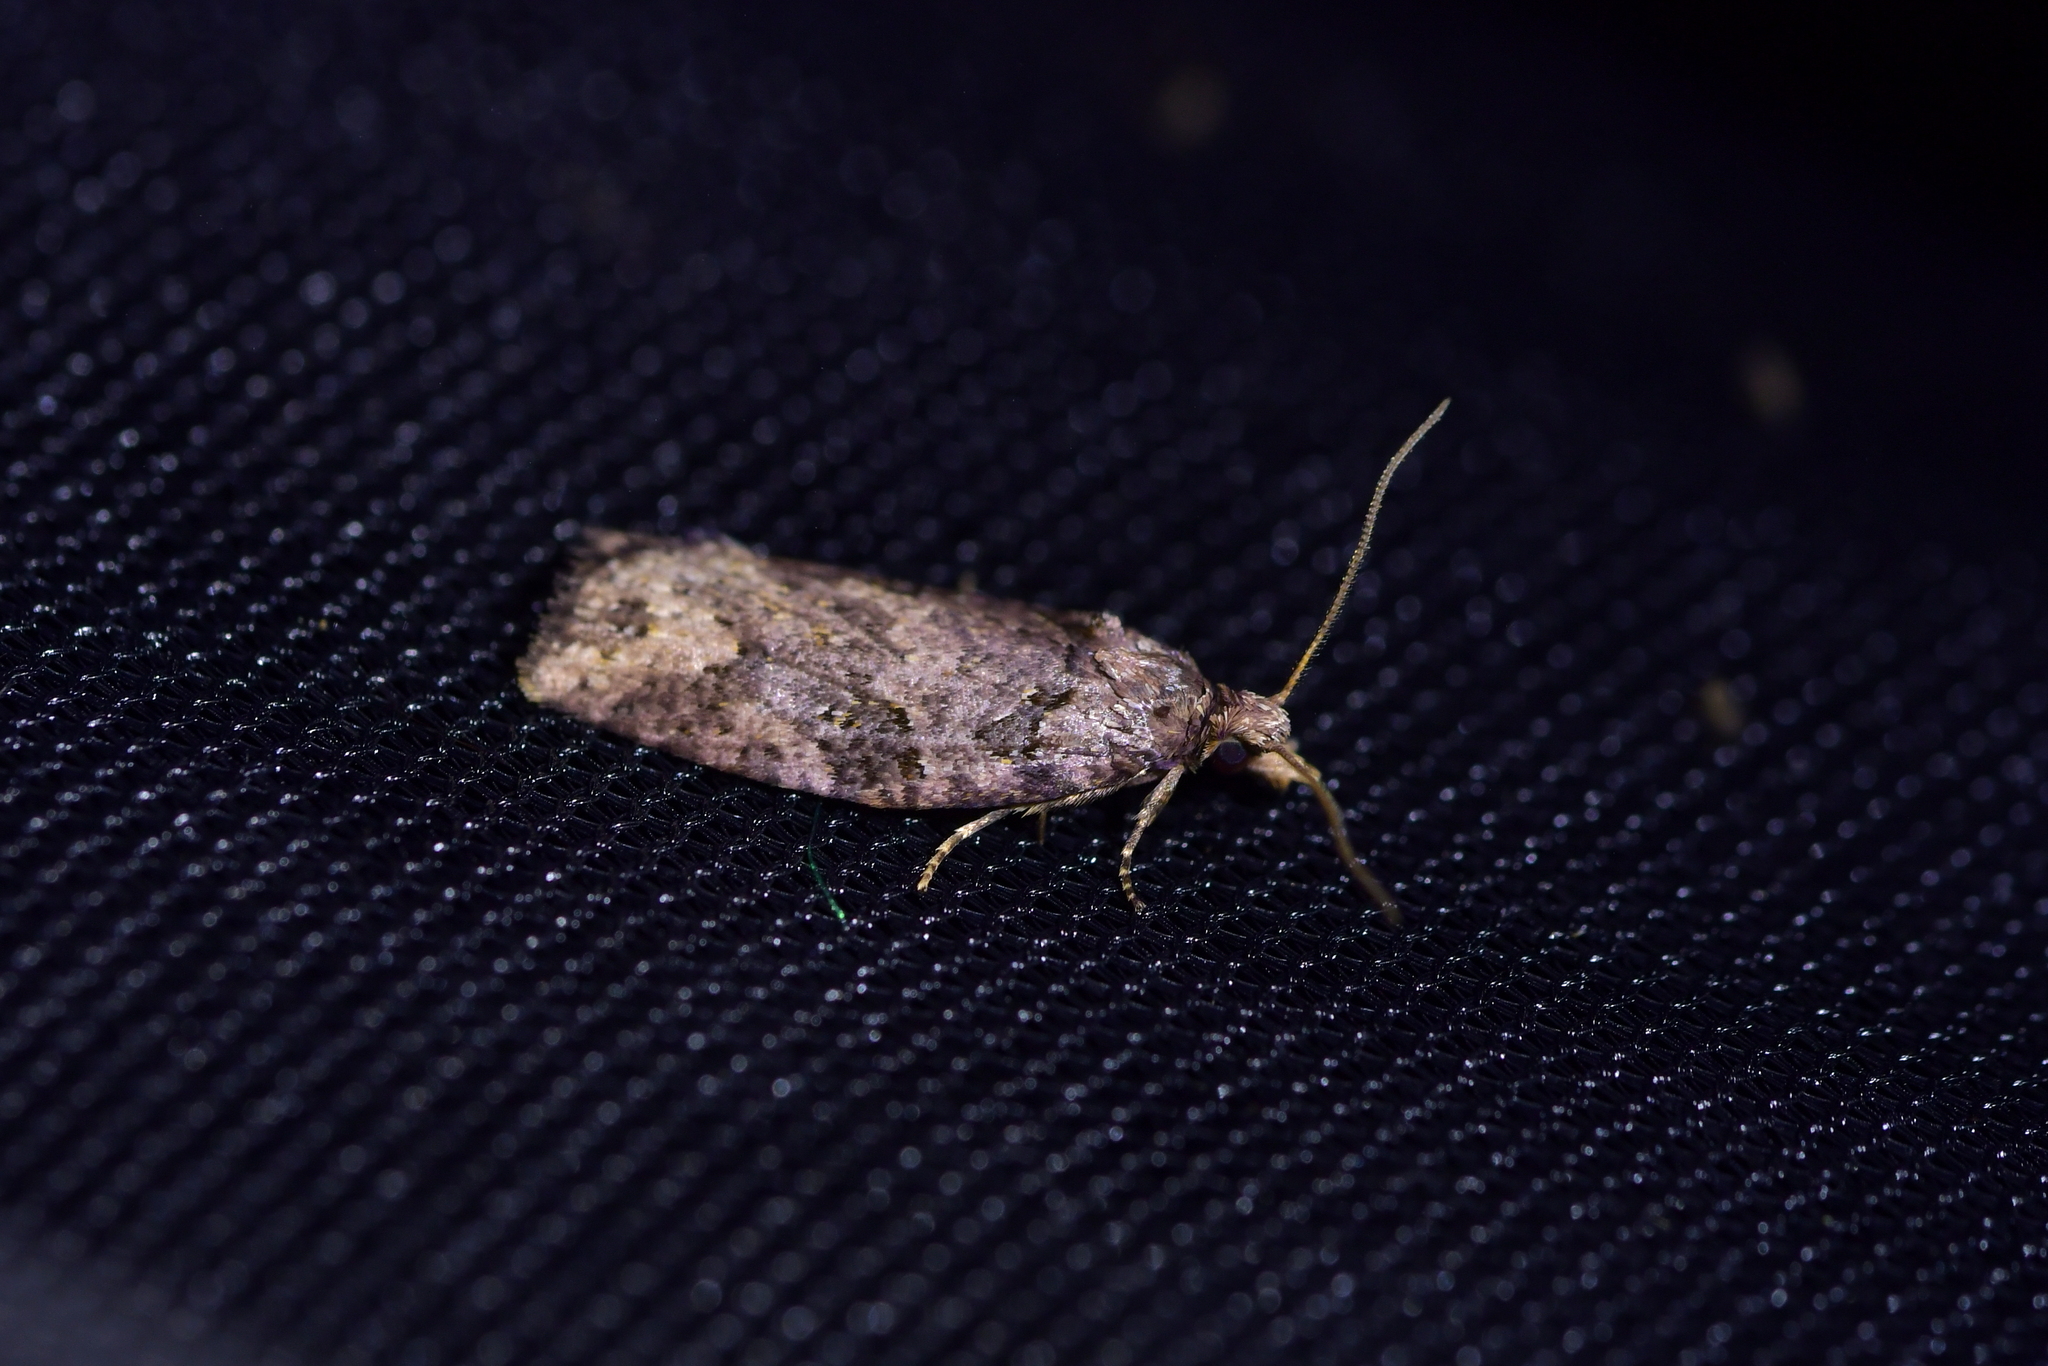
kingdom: Animalia
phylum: Arthropoda
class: Insecta
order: Lepidoptera
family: Tortricidae
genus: Ctenopseustis
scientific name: Ctenopseustis obliquana
